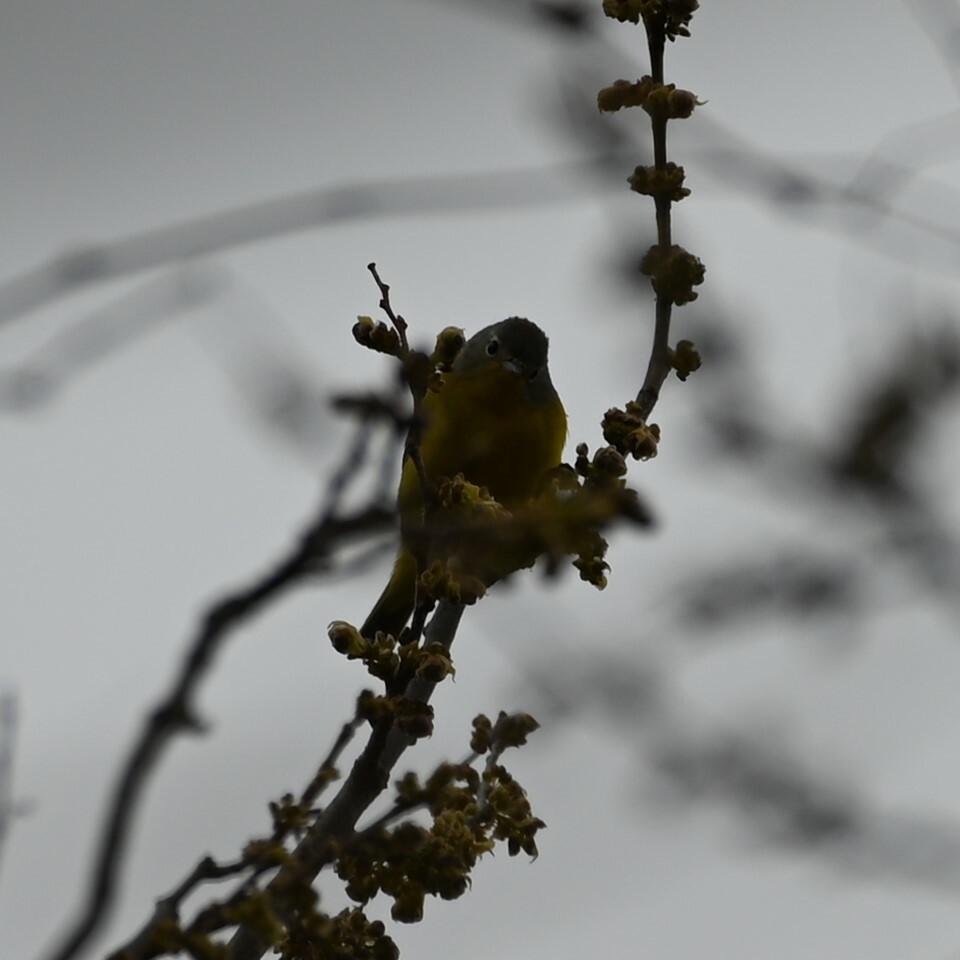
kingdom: Animalia
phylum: Chordata
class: Aves
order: Passeriformes
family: Parulidae
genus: Leiothlypis
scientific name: Leiothlypis ruficapilla
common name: Nashville warbler
